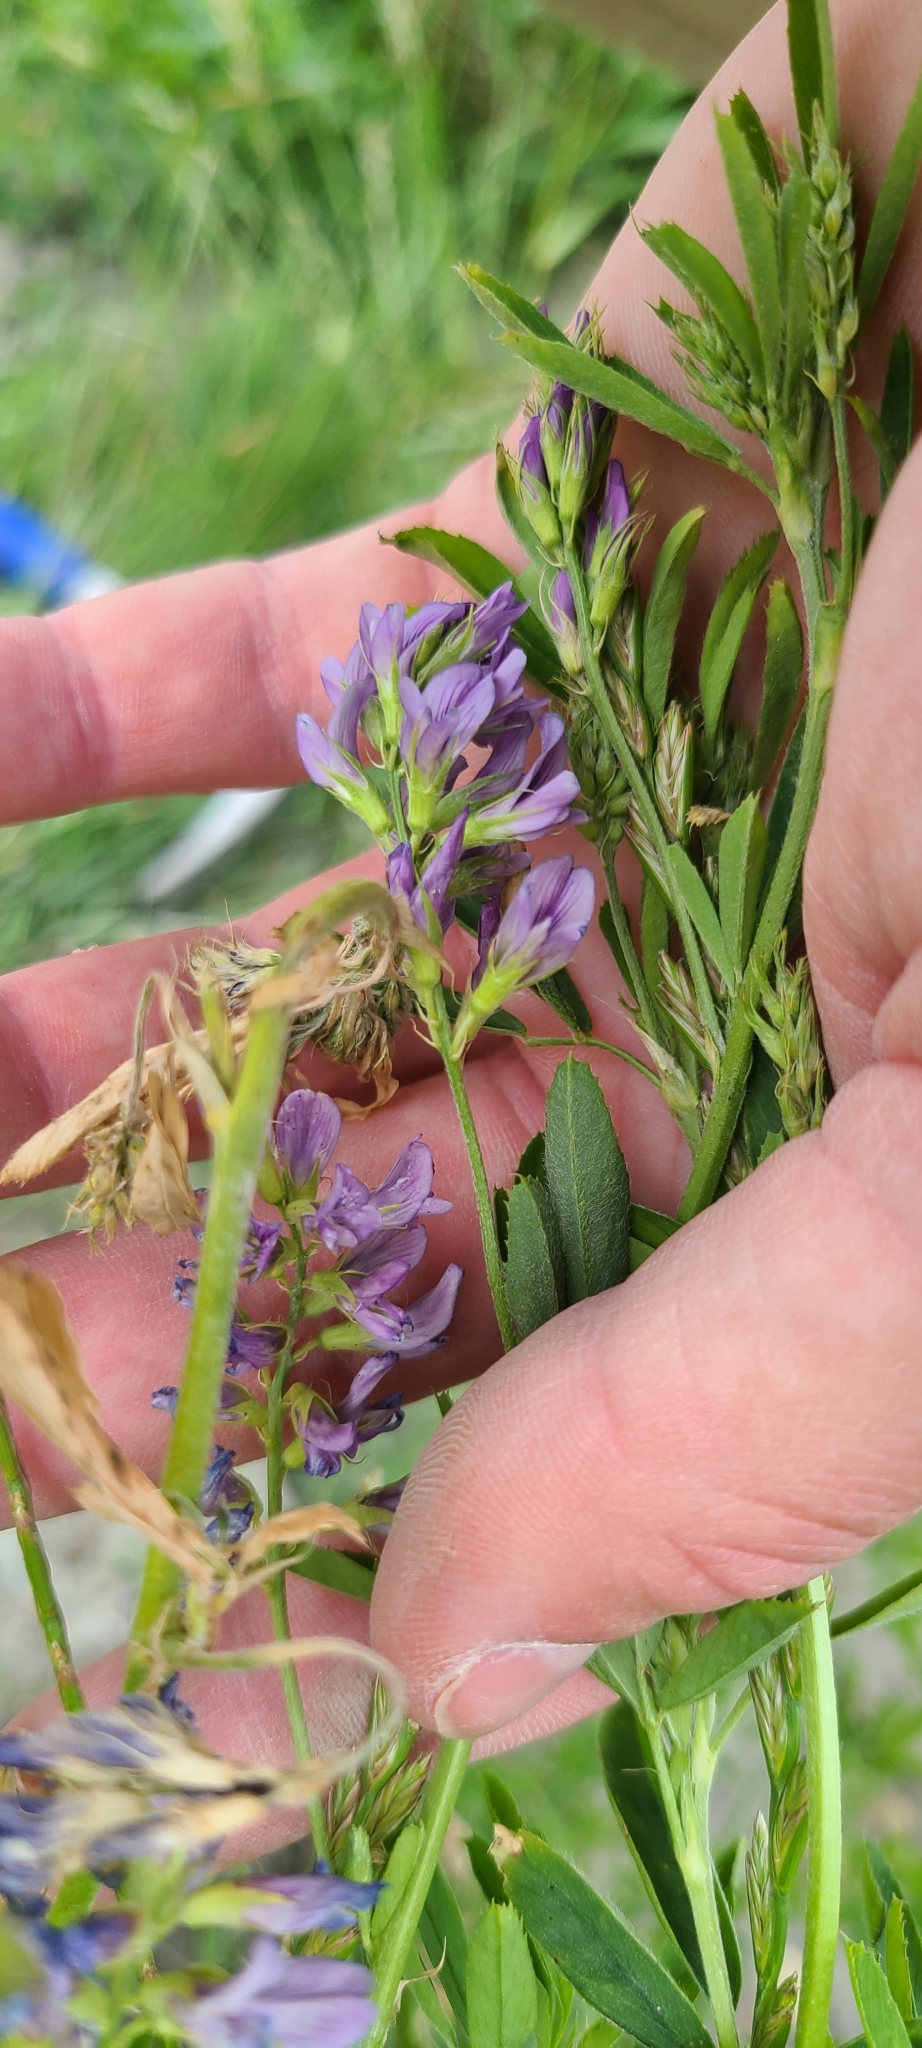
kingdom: Plantae
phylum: Tracheophyta
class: Magnoliopsida
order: Fabales
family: Fabaceae
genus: Medicago
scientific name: Medicago sativa
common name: Alfalfa
